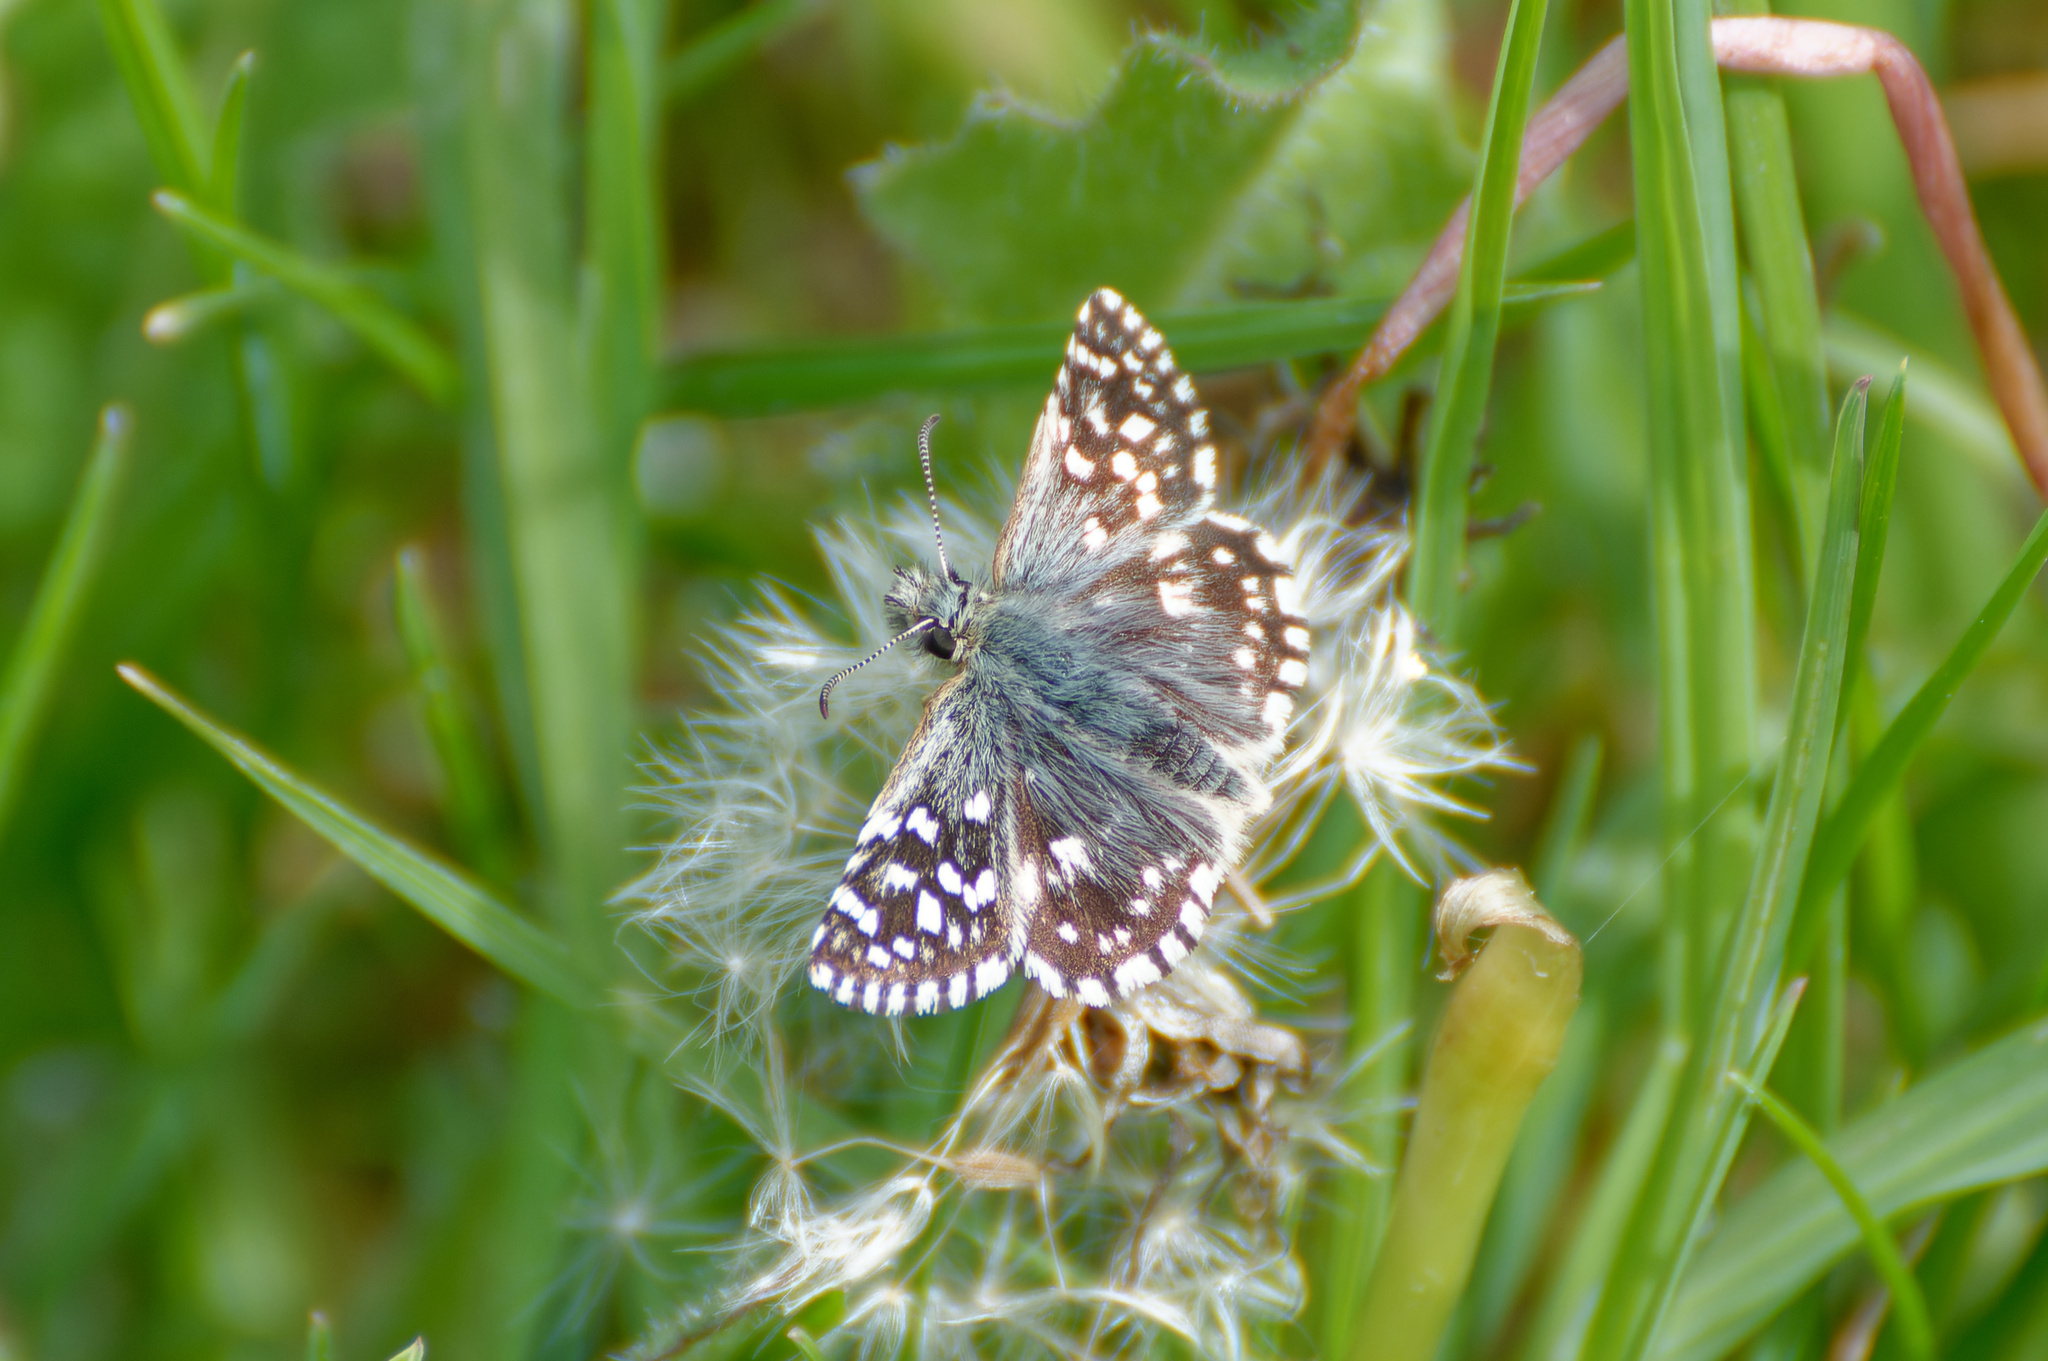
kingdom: Animalia
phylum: Arthropoda
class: Insecta
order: Lepidoptera
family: Hesperiidae
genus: Pyrgus
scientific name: Pyrgus malvae
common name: Grizzled skipper
